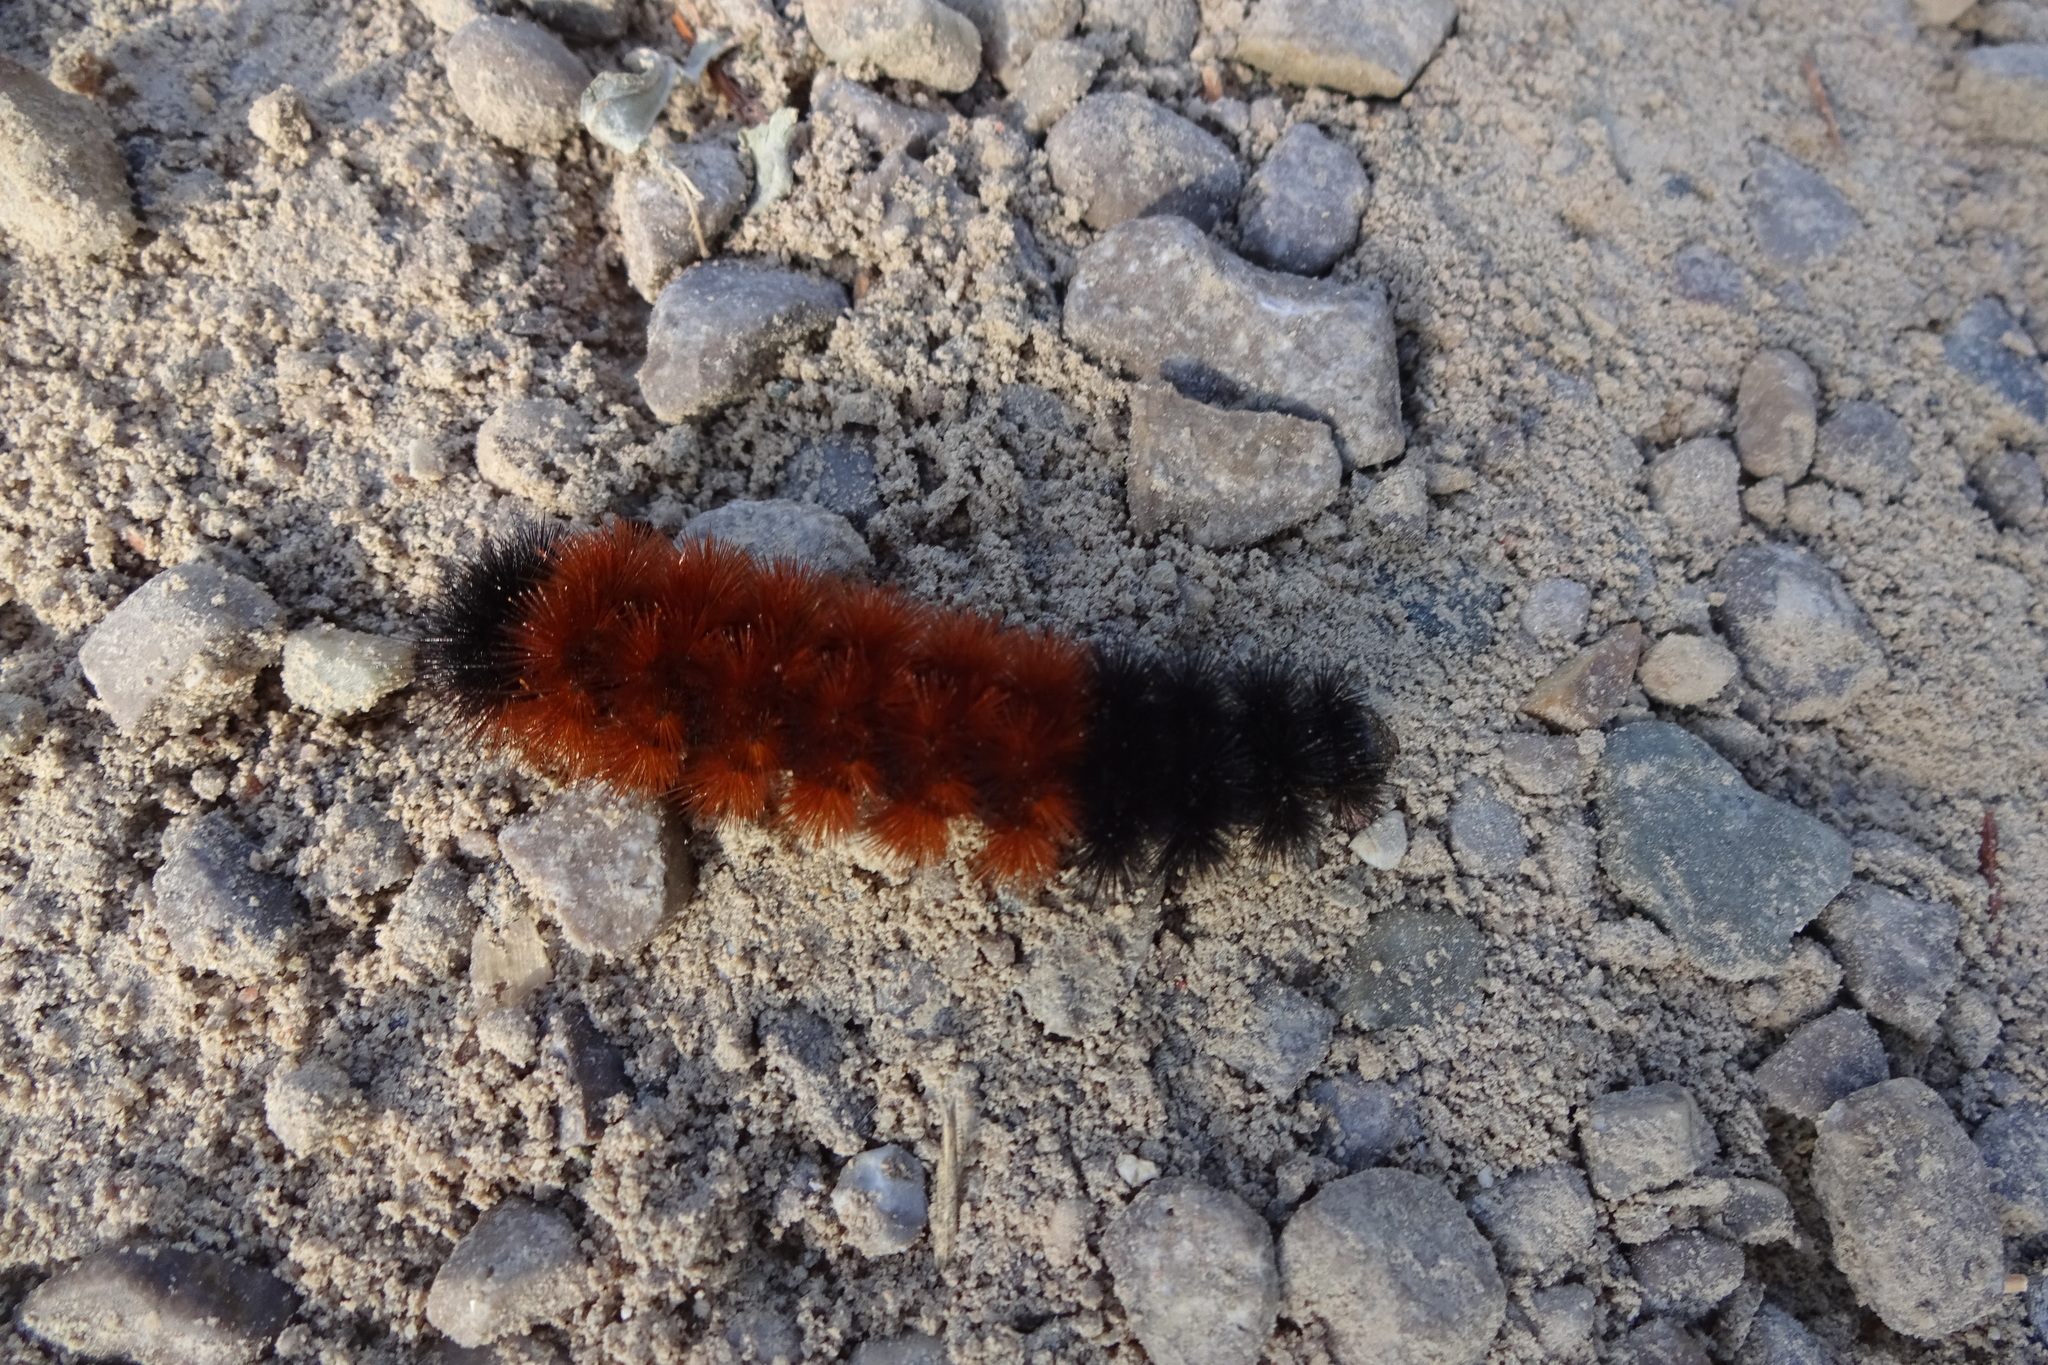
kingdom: Animalia
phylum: Arthropoda
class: Insecta
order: Lepidoptera
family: Erebidae
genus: Pyrrharctia
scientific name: Pyrrharctia isabella
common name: Isabella tiger moth
